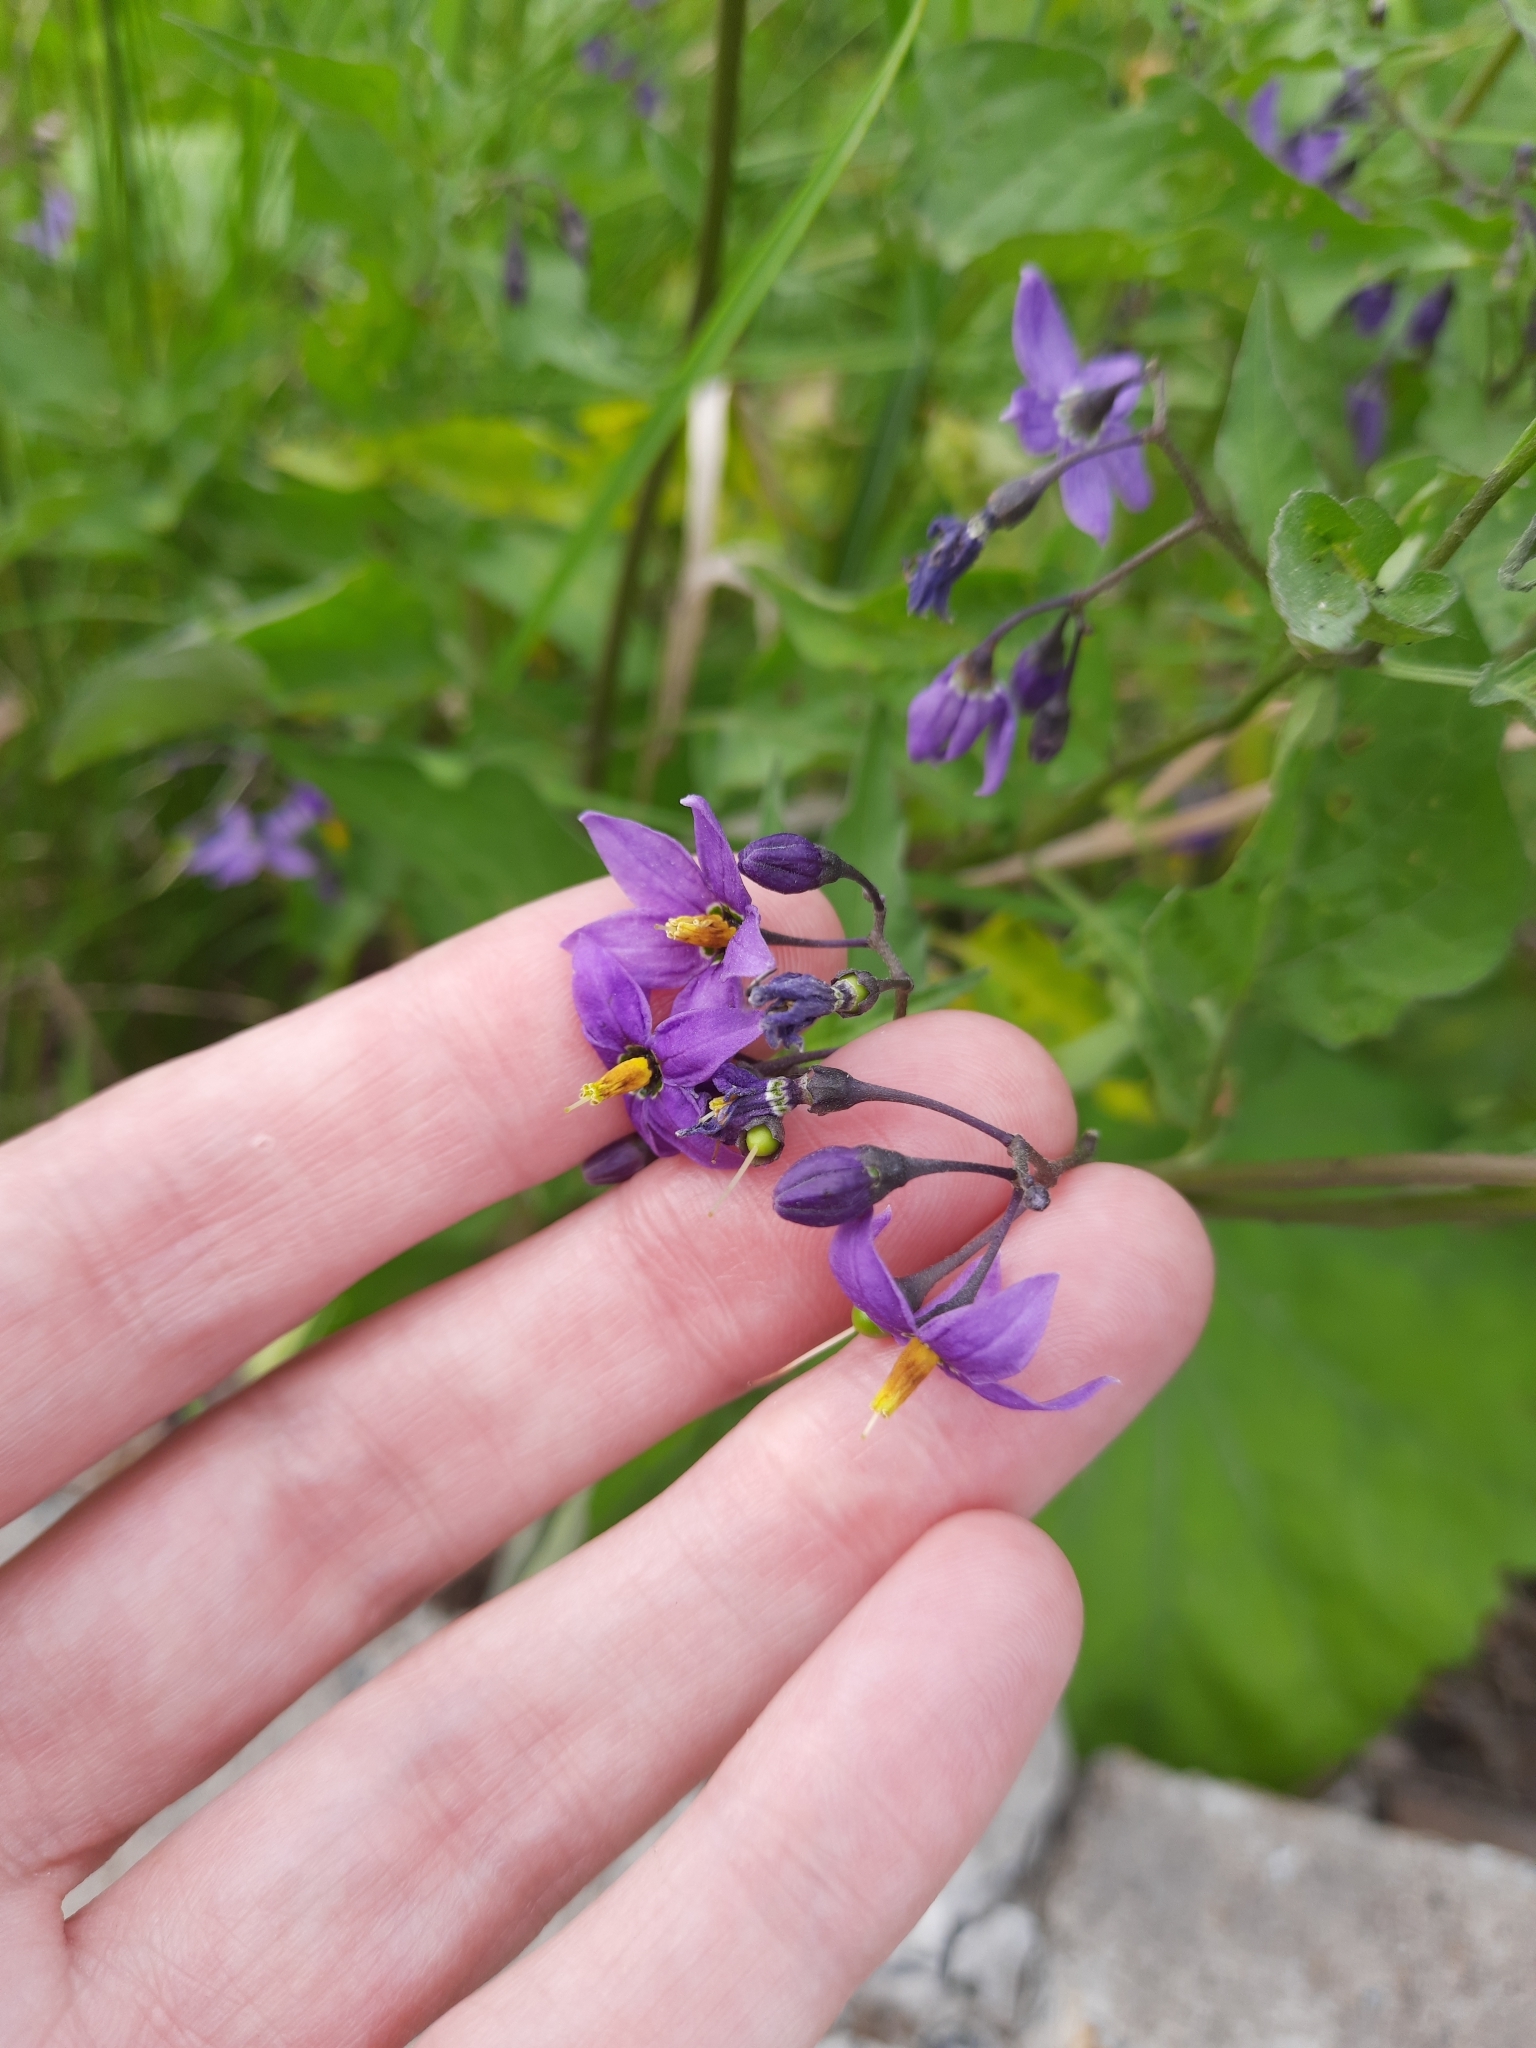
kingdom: Plantae
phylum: Tracheophyta
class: Magnoliopsida
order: Solanales
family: Solanaceae
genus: Solanum
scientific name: Solanum dulcamara
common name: Climbing nightshade
